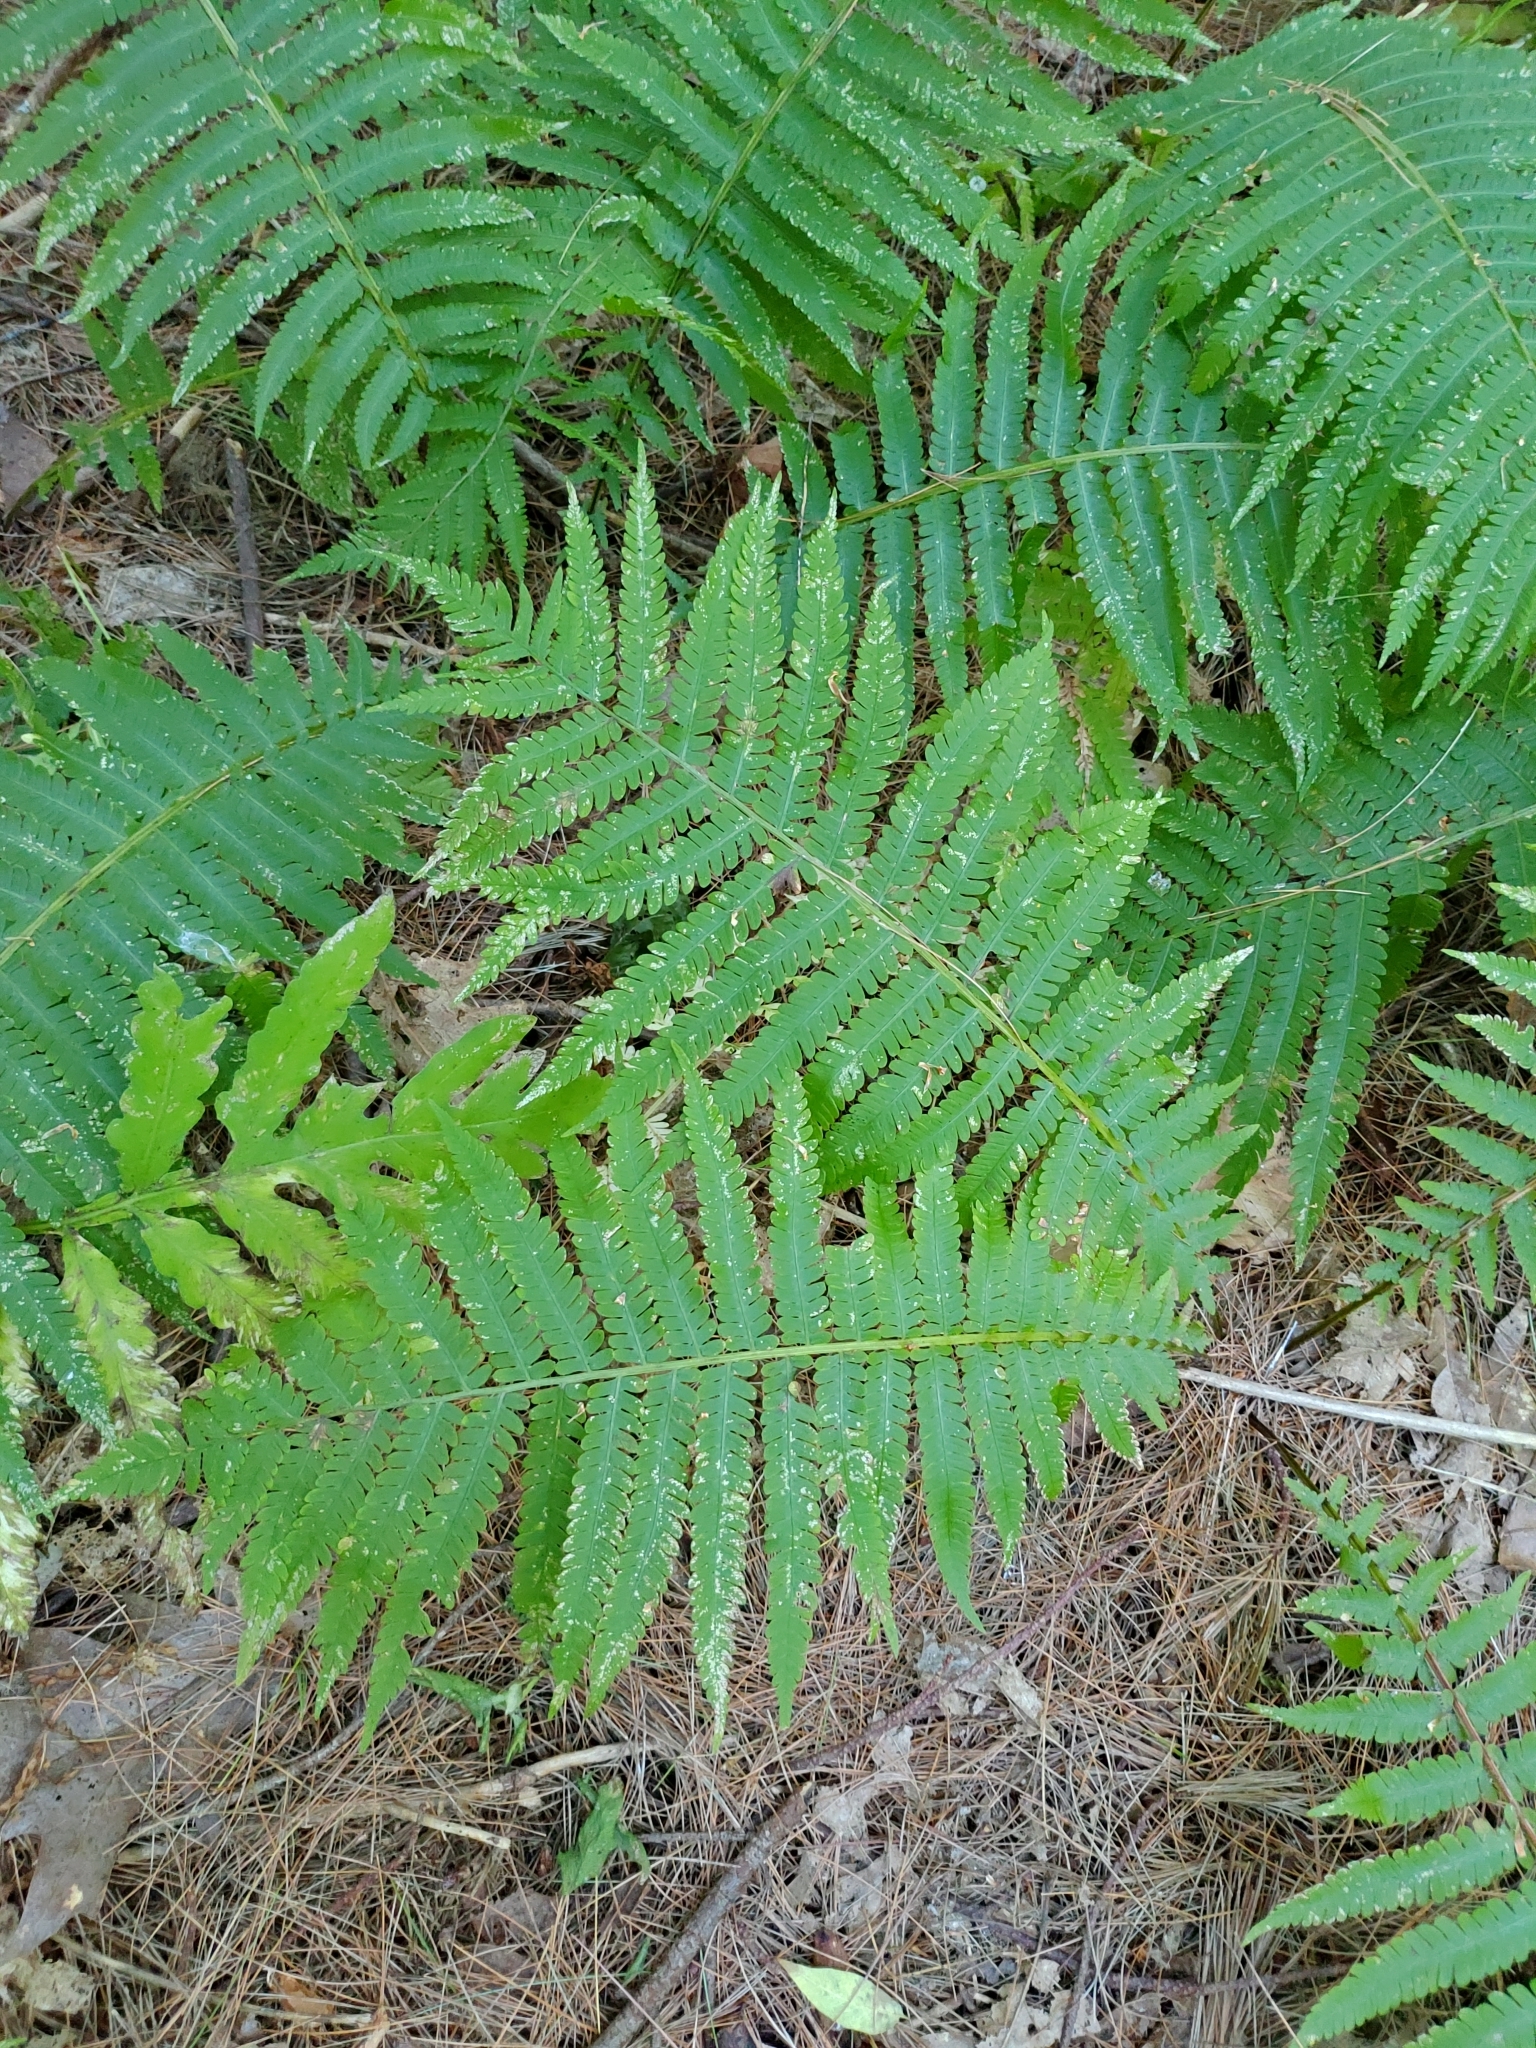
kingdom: Plantae
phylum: Tracheophyta
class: Polypodiopsida
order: Polypodiales
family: Onocleaceae
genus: Matteuccia
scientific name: Matteuccia struthiopteris
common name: Ostrich fern
